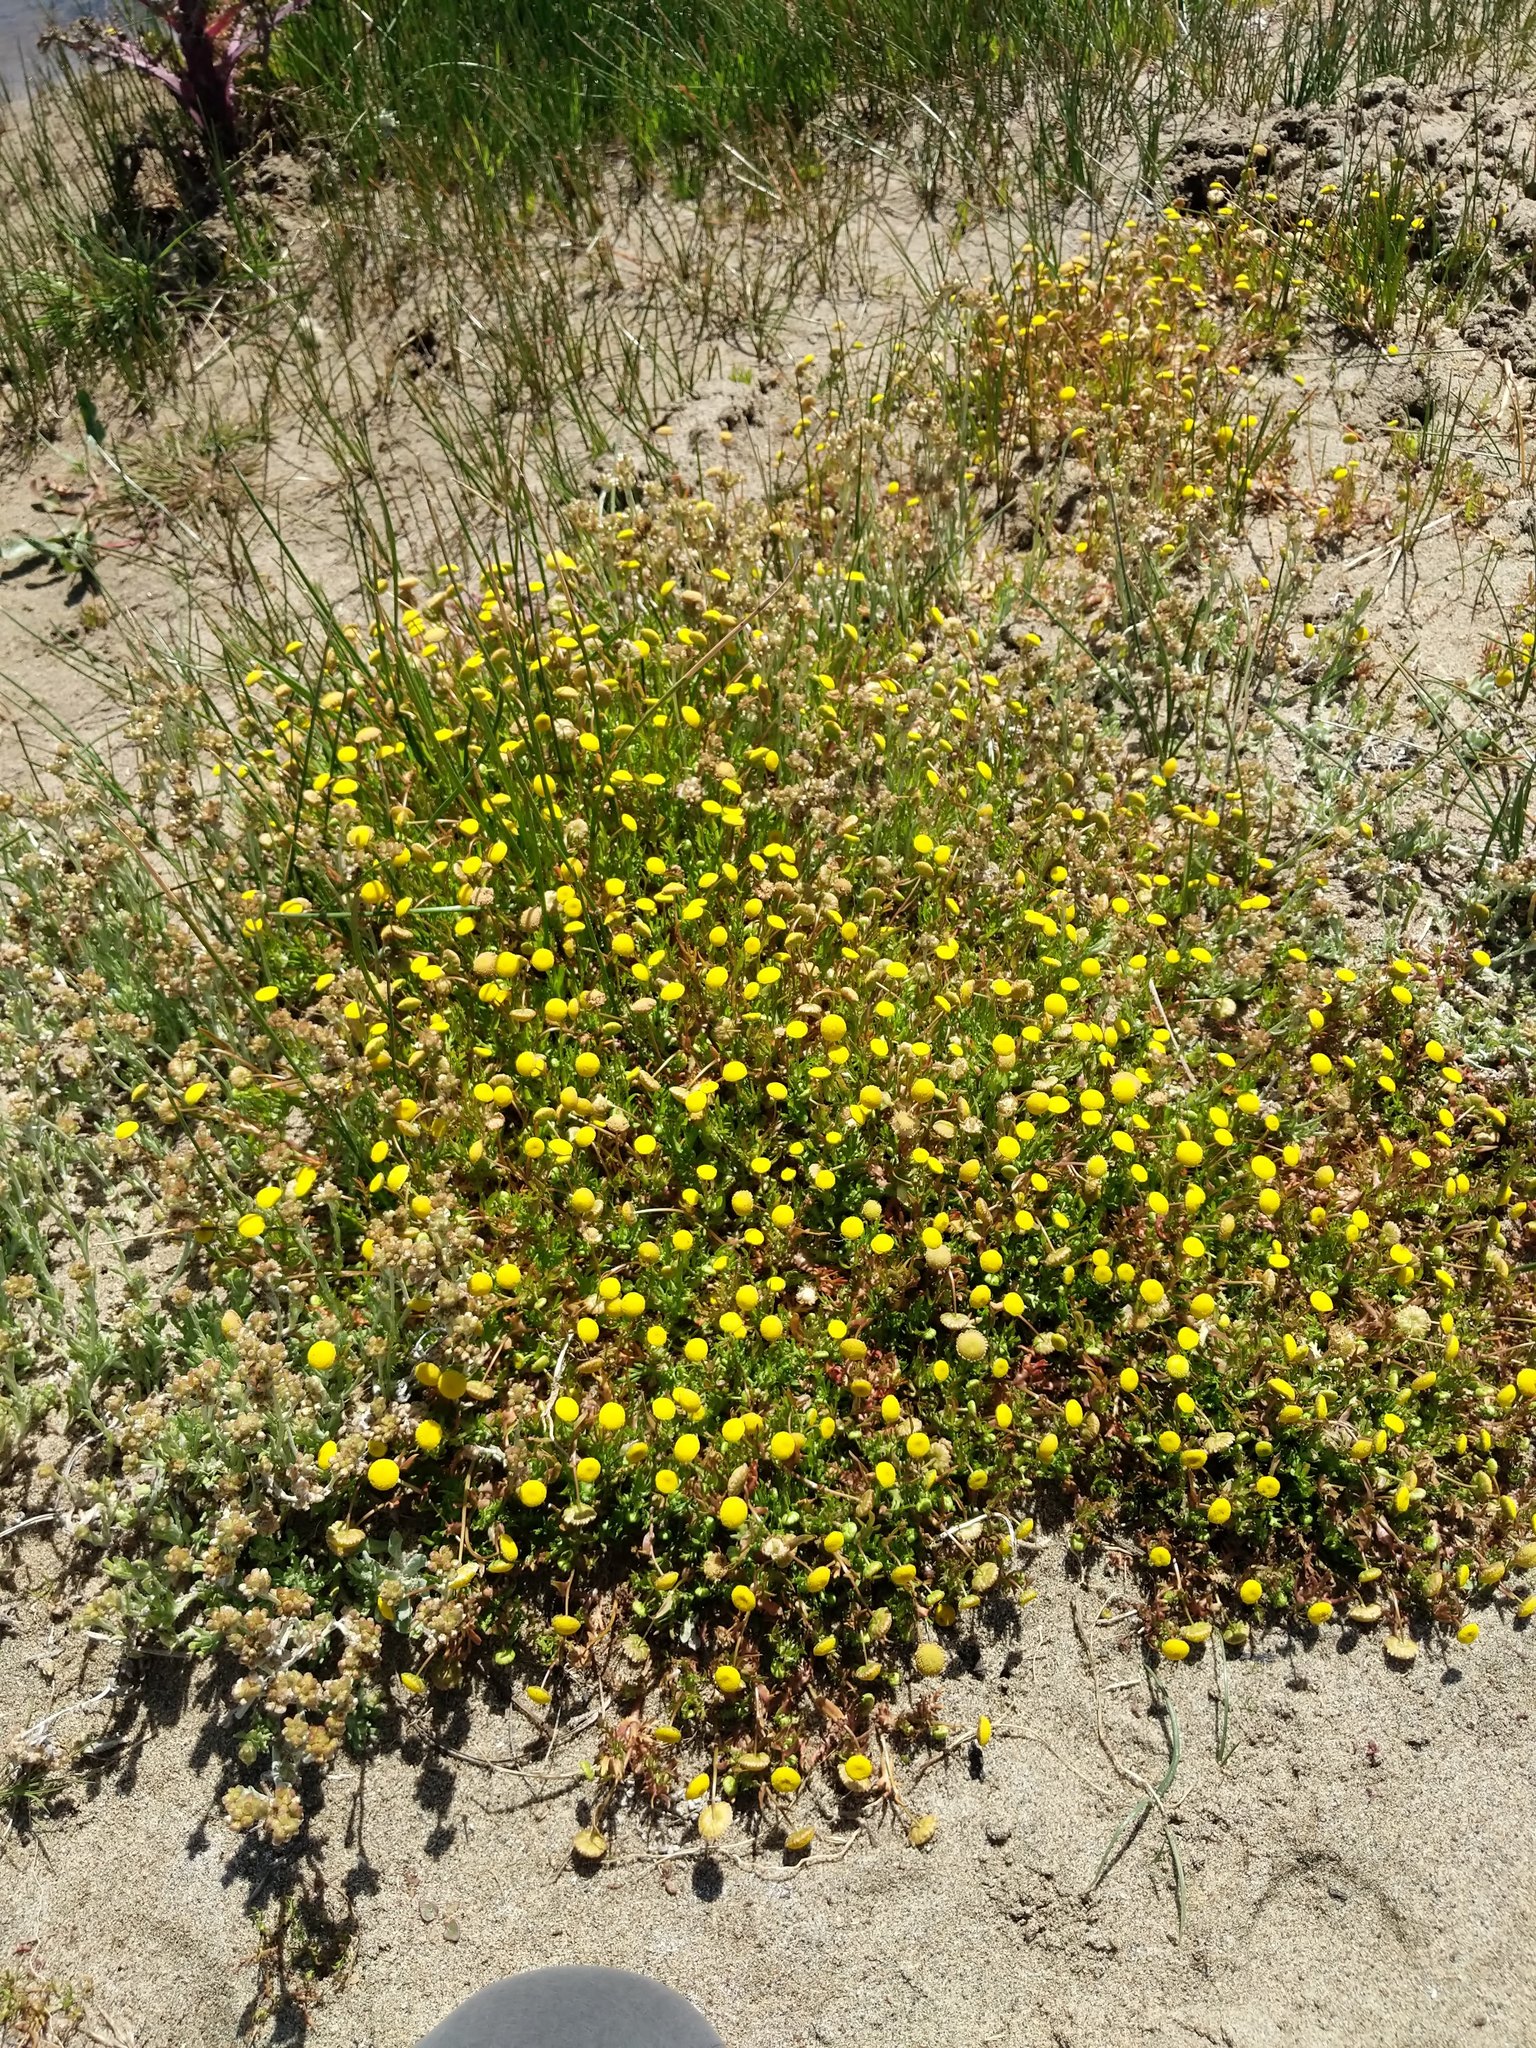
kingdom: Plantae
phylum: Tracheophyta
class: Magnoliopsida
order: Asterales
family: Asteraceae
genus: Cotula
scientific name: Cotula coronopifolia
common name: Buttonweed
